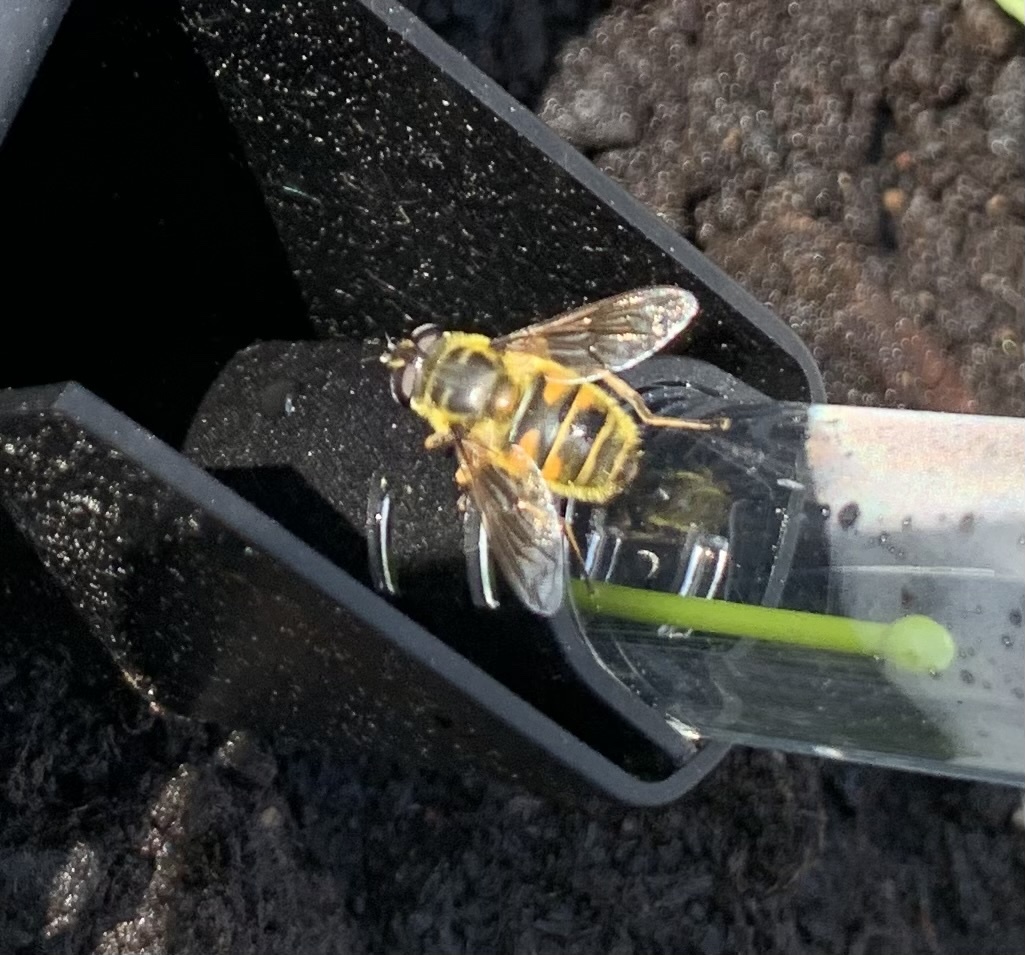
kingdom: Animalia
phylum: Arthropoda
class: Insecta
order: Diptera
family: Syrphidae
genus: Myathropa
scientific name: Myathropa florea
